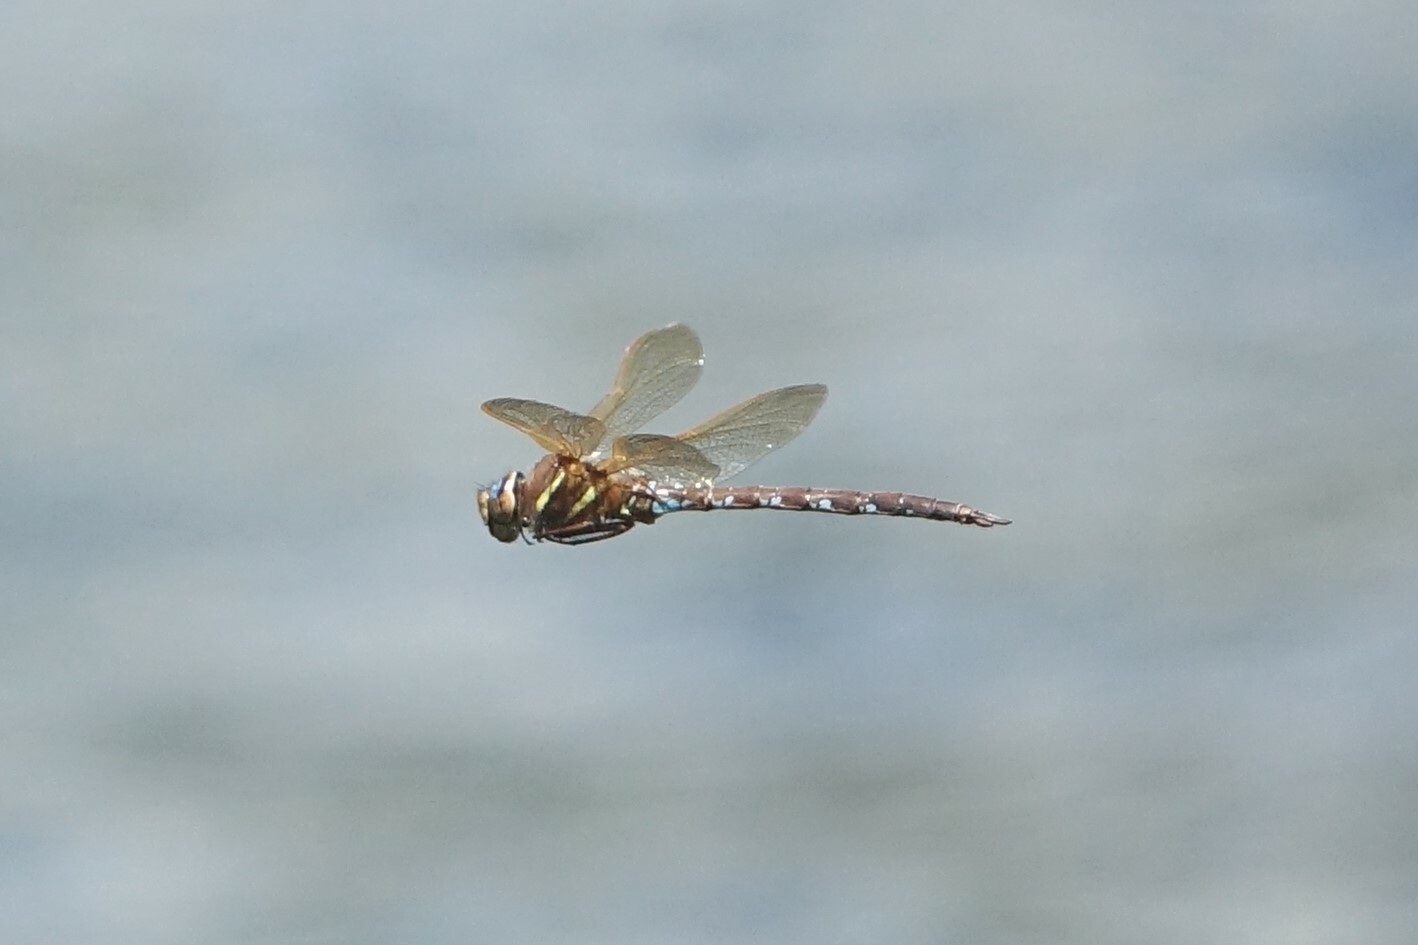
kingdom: Animalia
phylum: Arthropoda
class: Insecta
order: Odonata
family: Aeshnidae
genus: Aeshna
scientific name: Aeshna grandis
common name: Brown hawker
